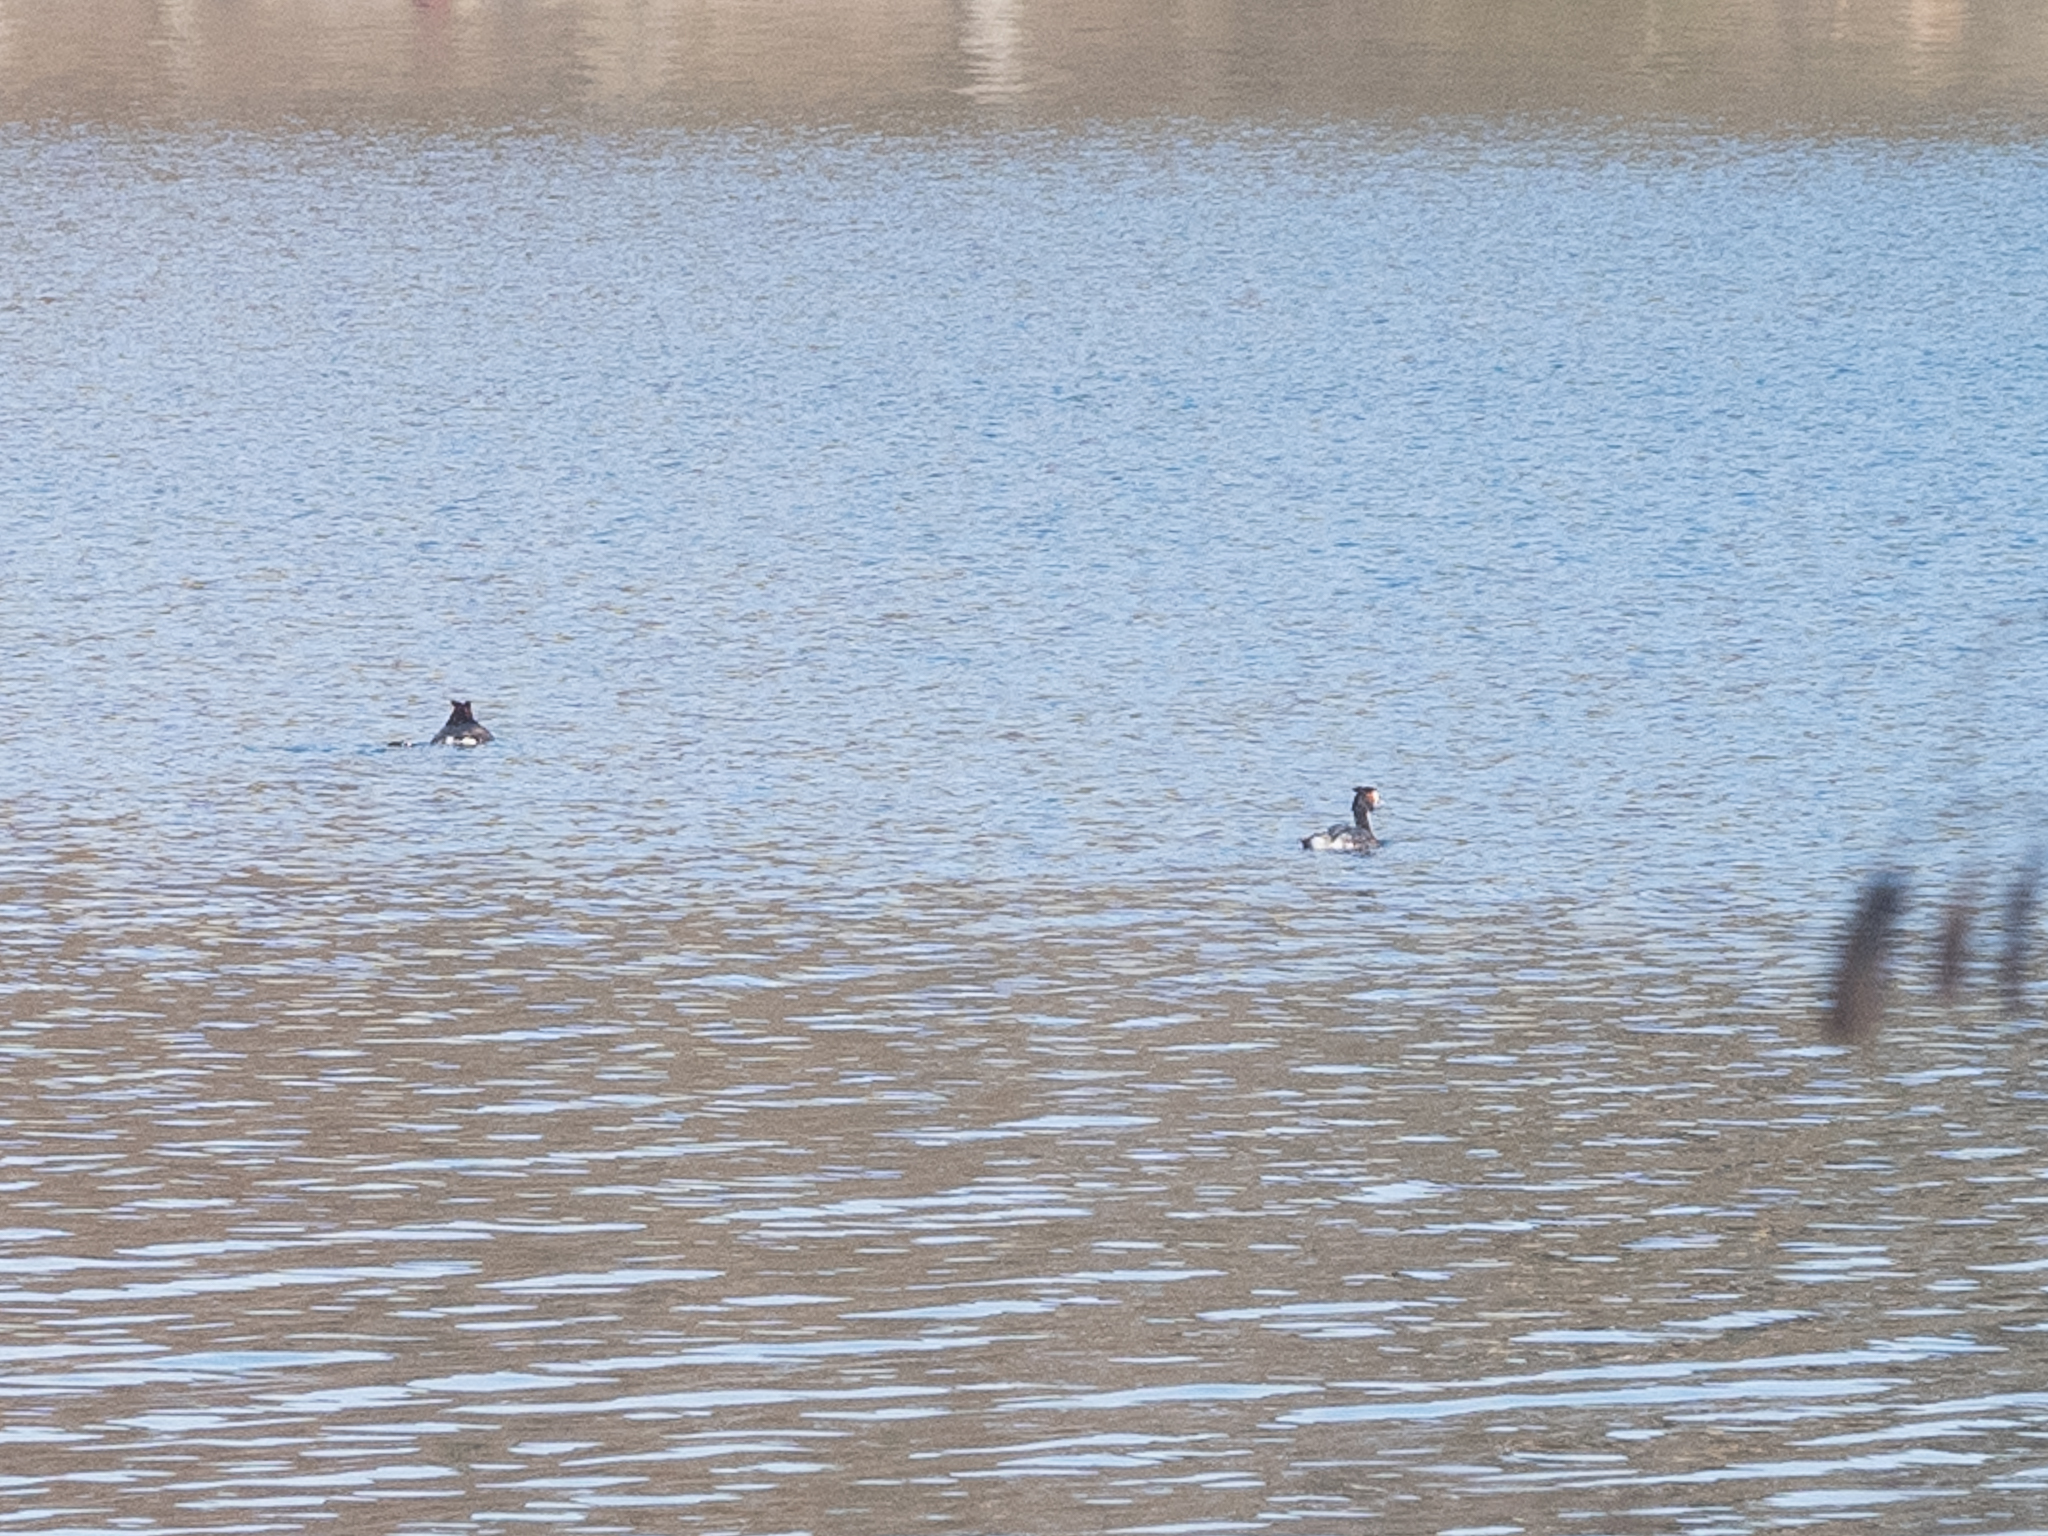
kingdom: Animalia
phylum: Chordata
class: Aves
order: Podicipediformes
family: Podicipedidae
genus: Podiceps
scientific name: Podiceps cristatus
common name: Great crested grebe
